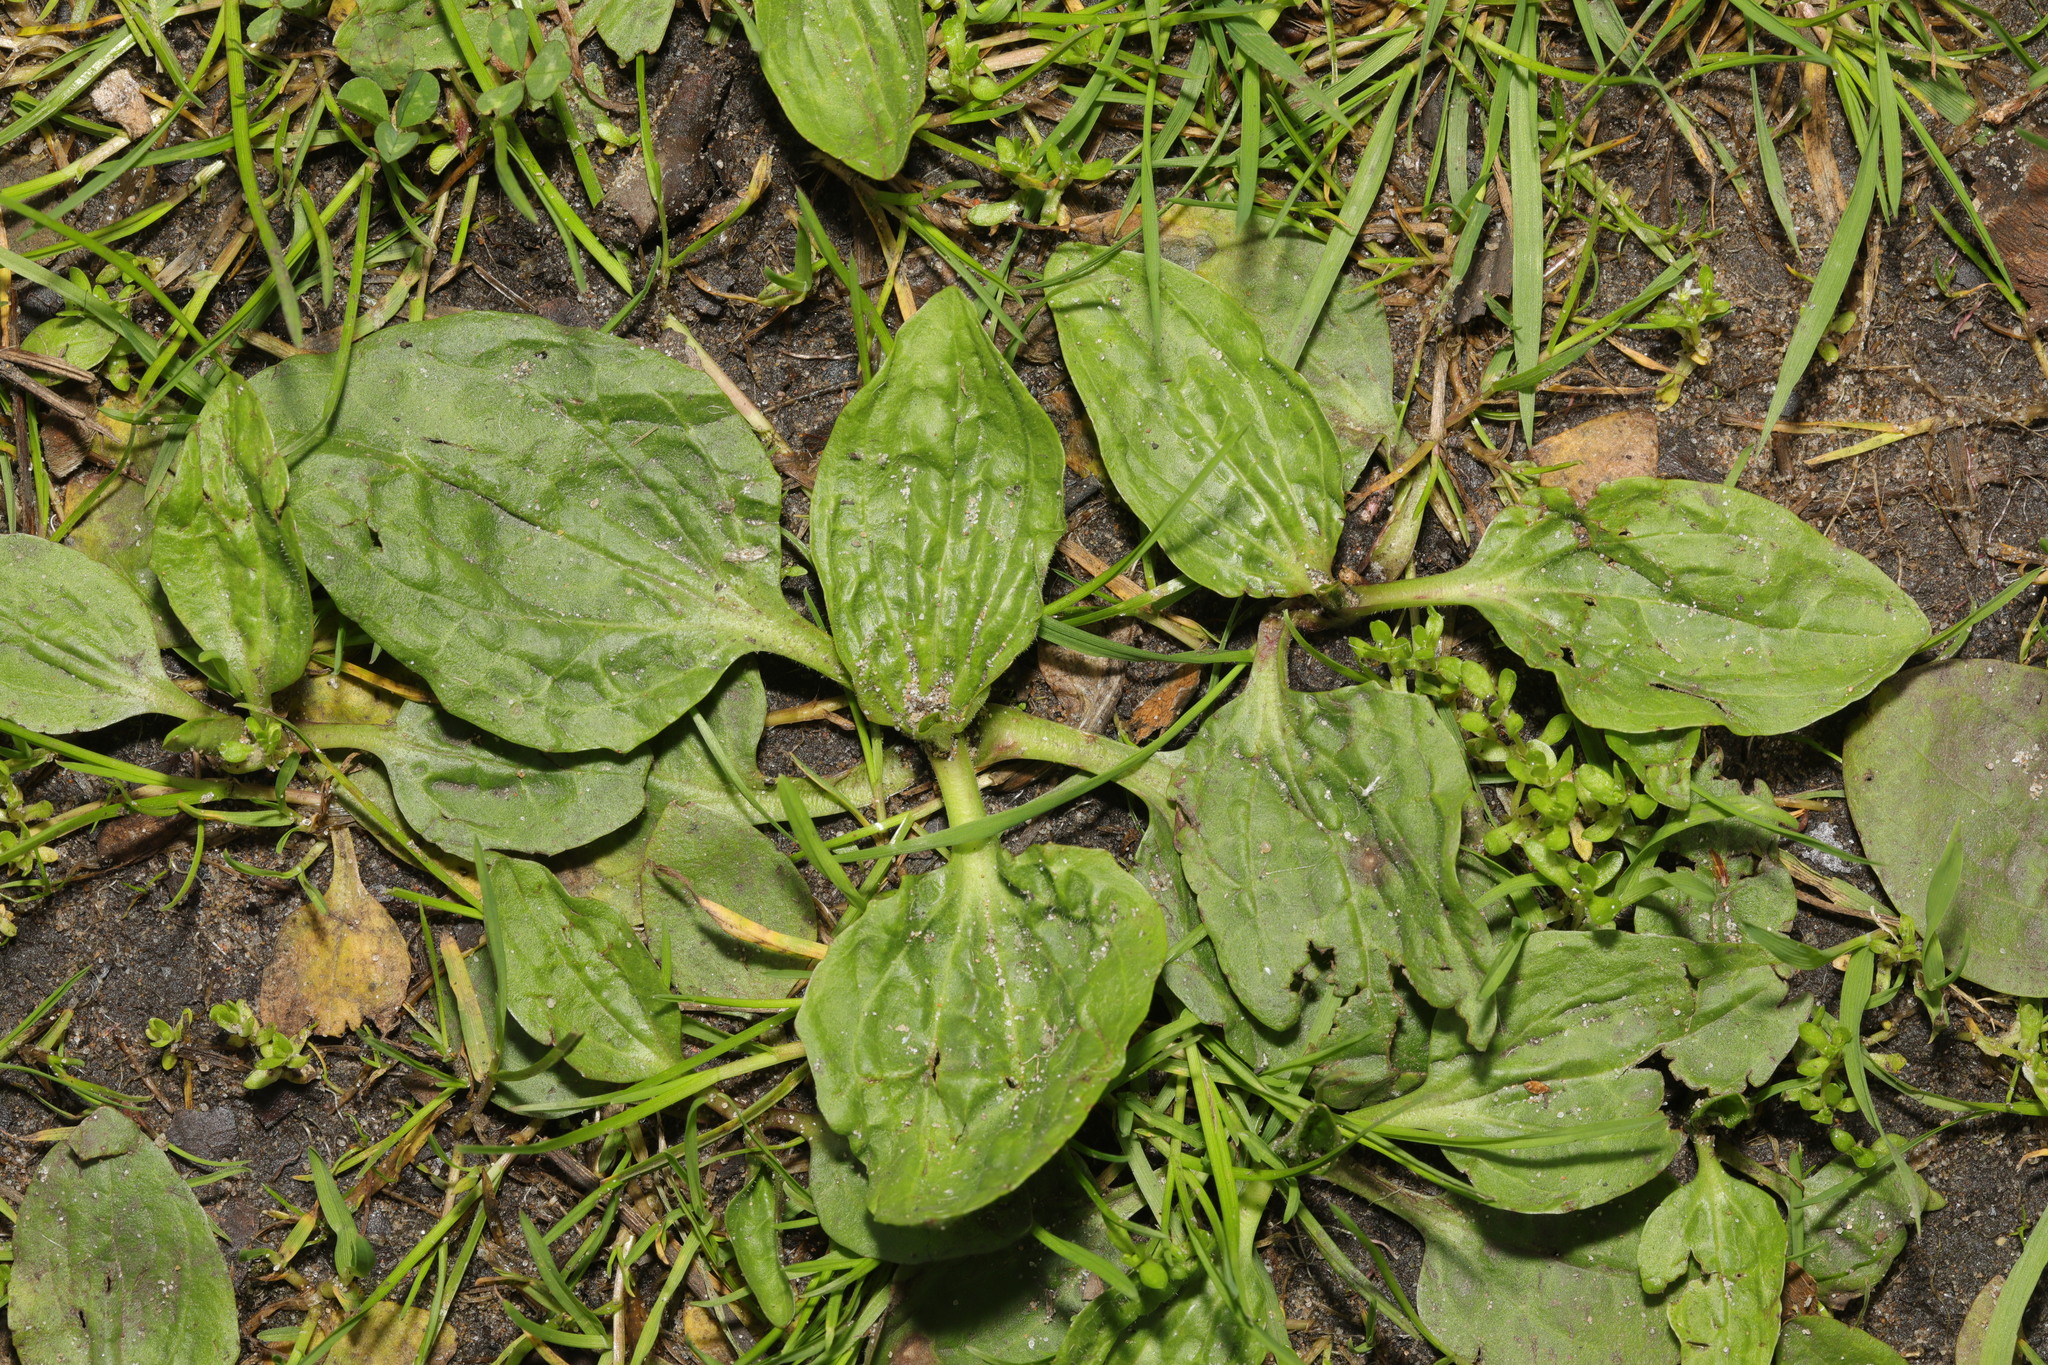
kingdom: Plantae
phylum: Tracheophyta
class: Magnoliopsida
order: Lamiales
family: Plantaginaceae
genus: Plantago
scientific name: Plantago major
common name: Common plantain
